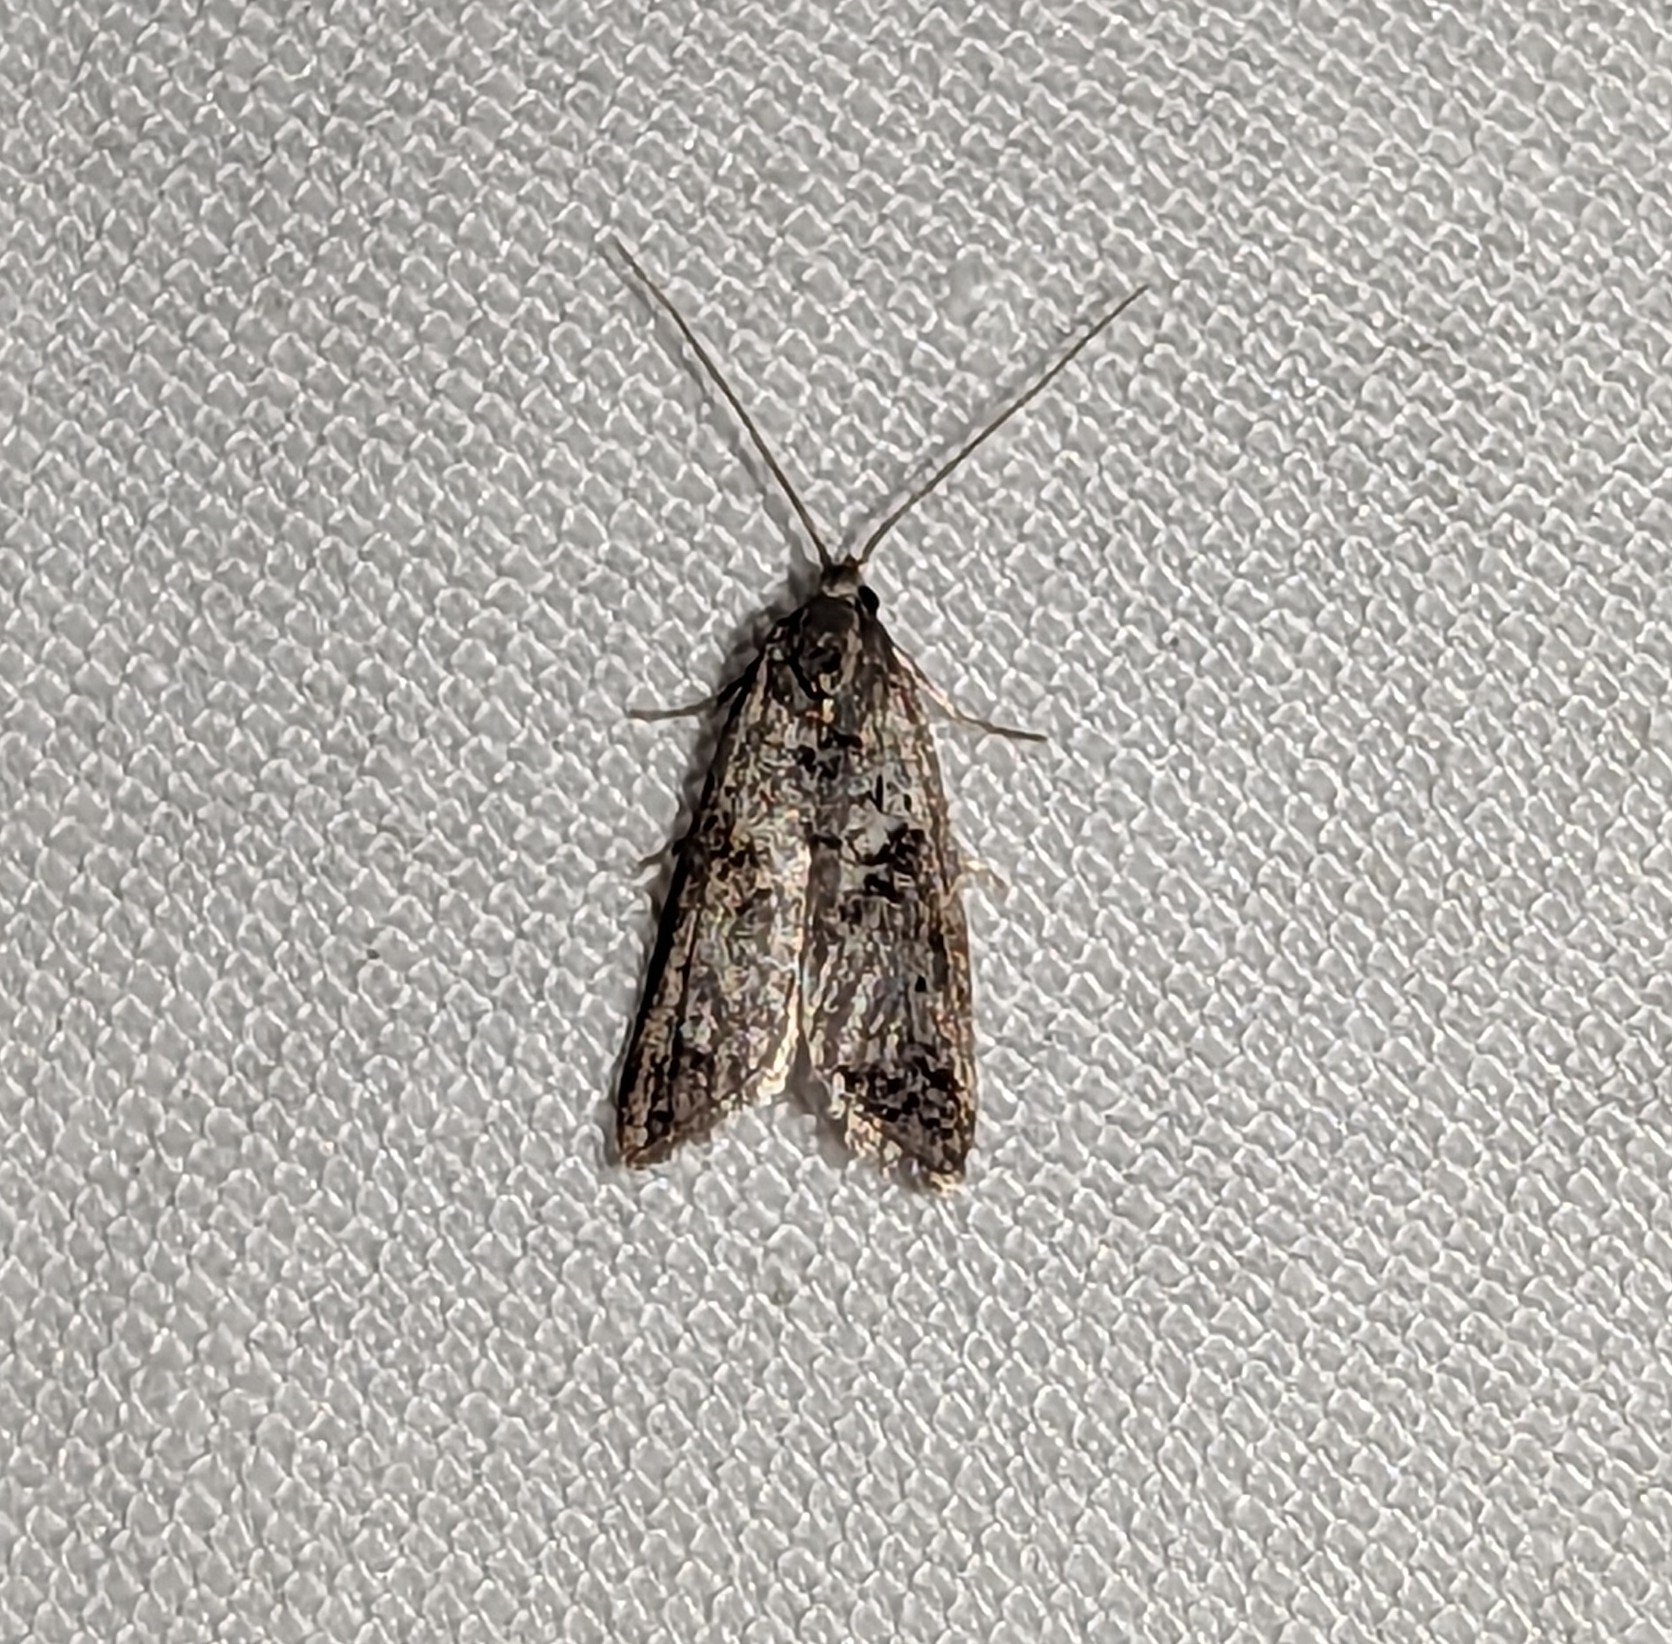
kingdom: Animalia
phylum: Arthropoda
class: Insecta
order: Lepidoptera
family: Copromorphidae
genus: Lotisma
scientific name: Lotisma trigonana
